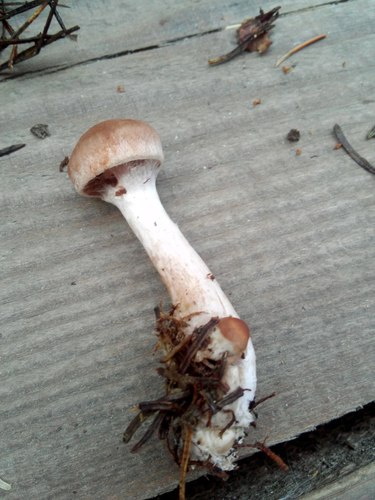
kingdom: Fungi
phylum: Basidiomycota
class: Agaricomycetes
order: Agaricales
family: Cortinariaceae
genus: Cortinarius
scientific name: Cortinarius
